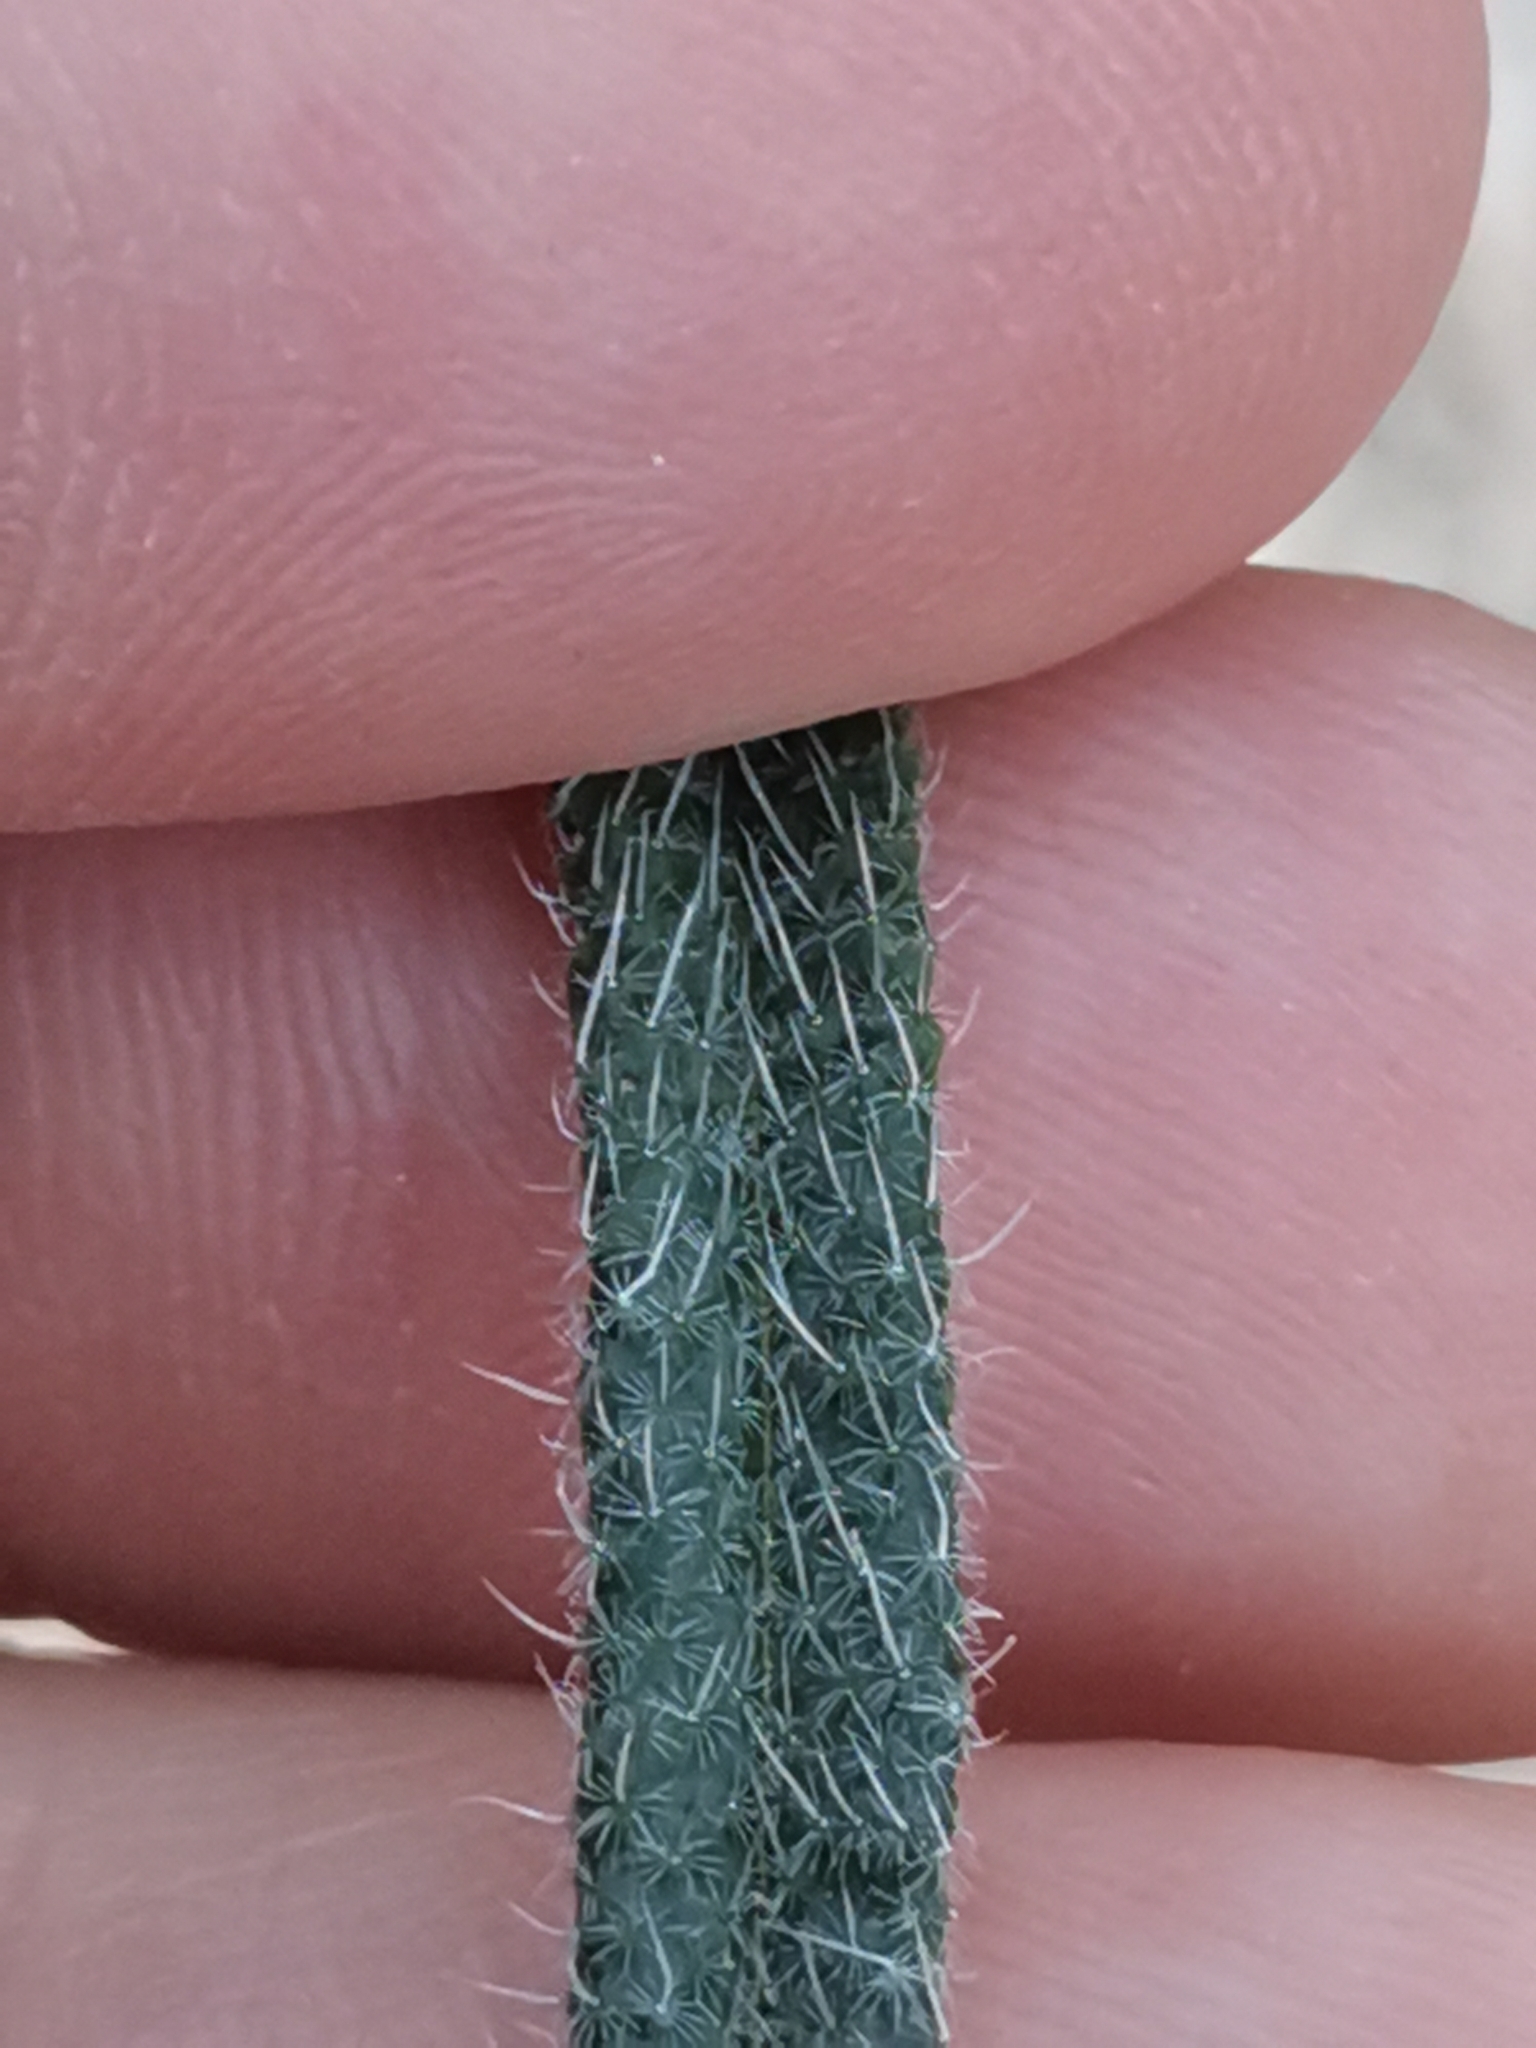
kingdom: Plantae
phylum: Tracheophyta
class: Magnoliopsida
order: Boraginales
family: Boraginaceae
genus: Onosma
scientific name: Onosma echioides
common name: Goldendrop
